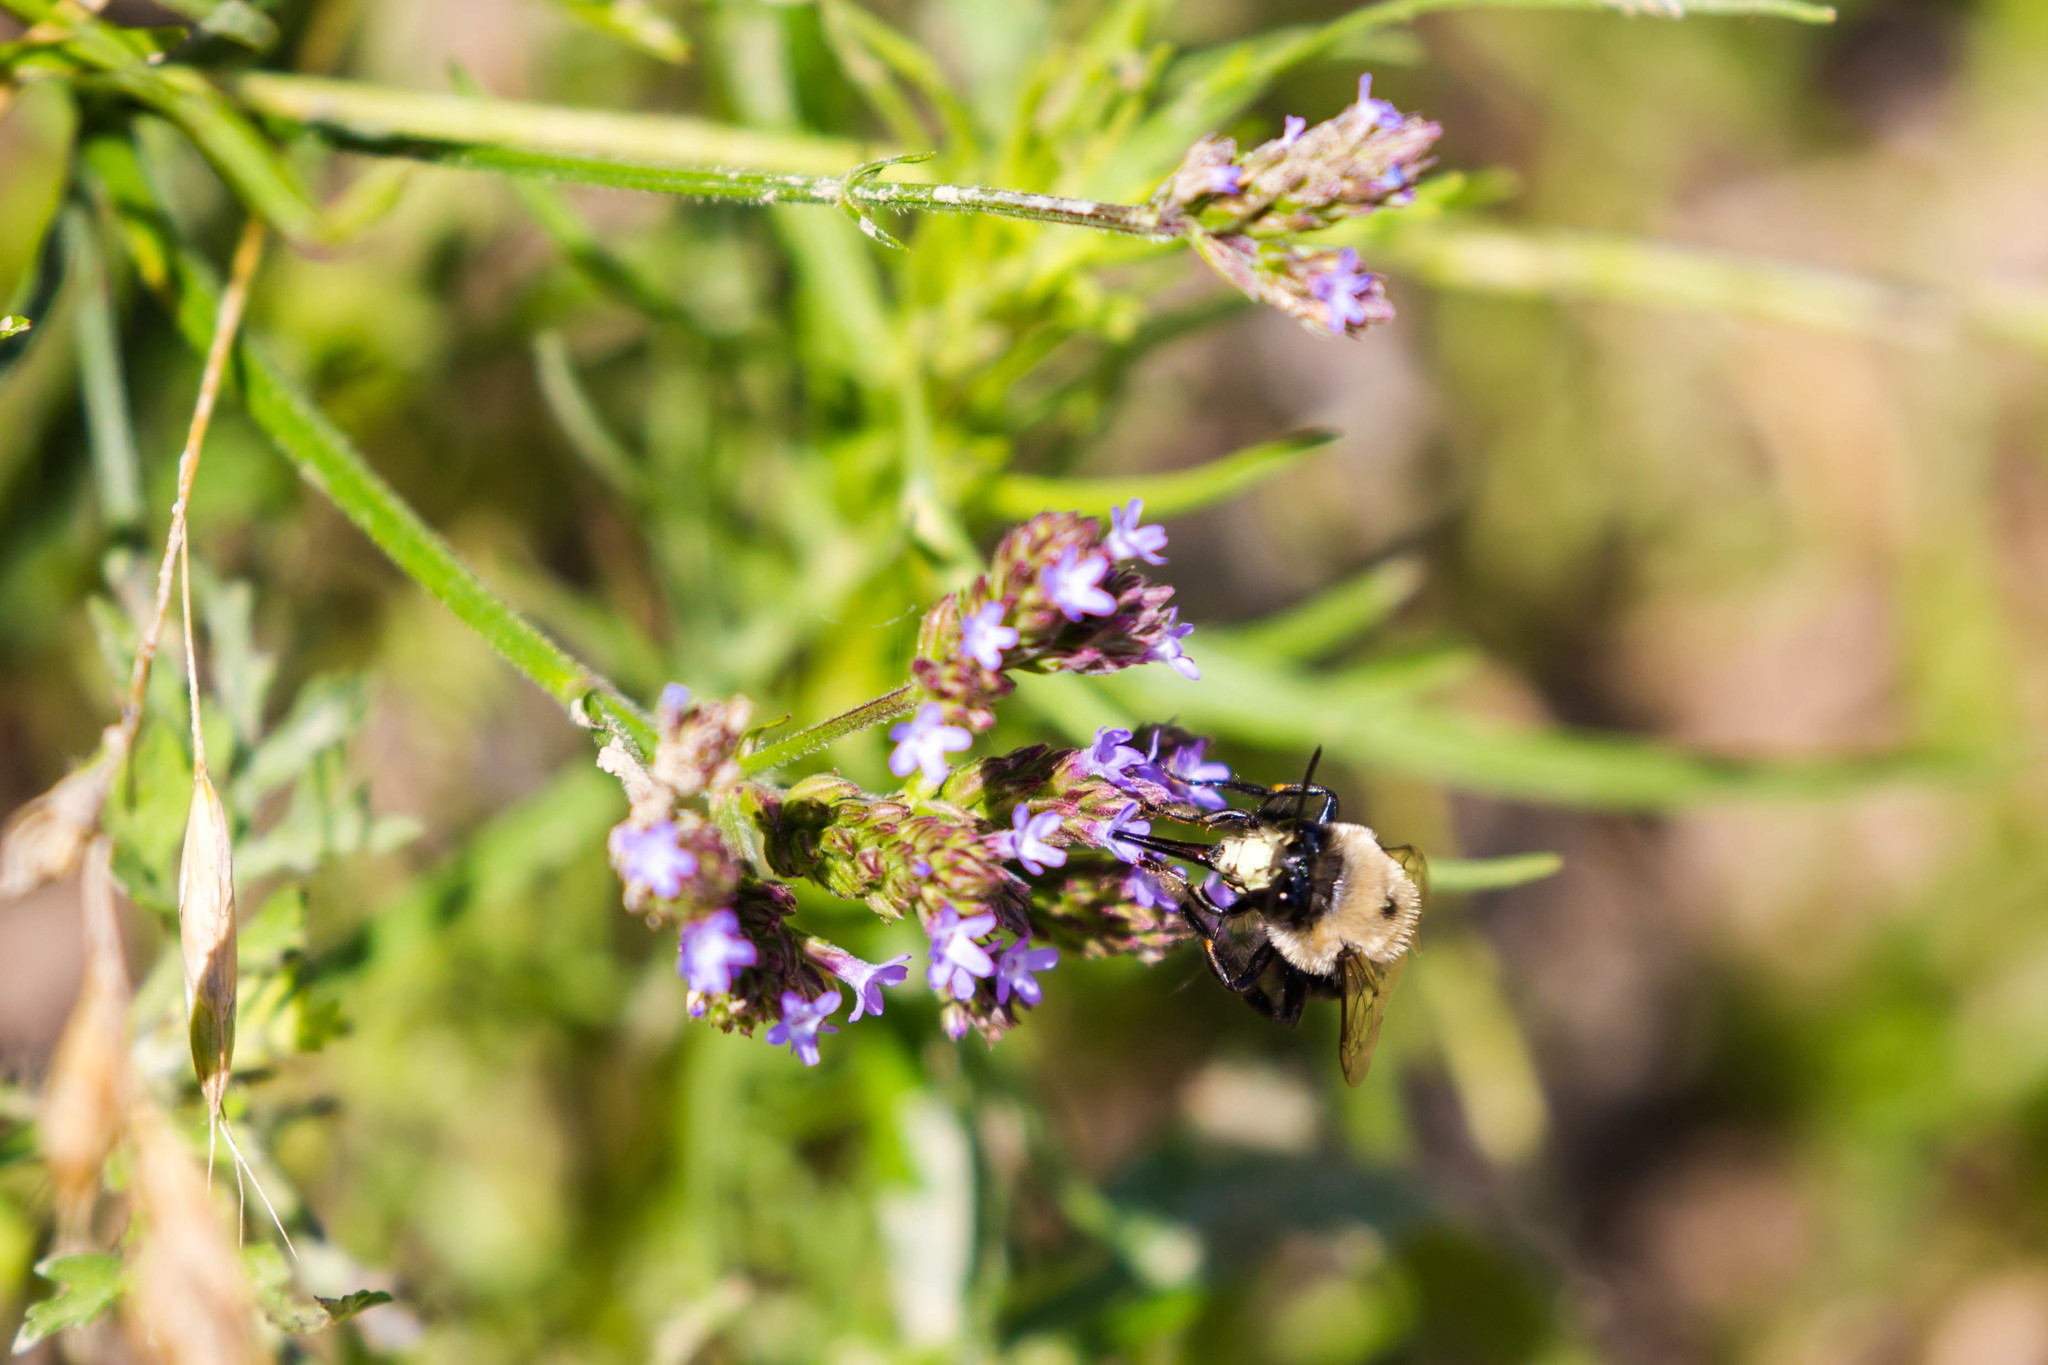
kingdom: Animalia
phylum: Arthropoda
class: Insecta
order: Hymenoptera
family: Apidae
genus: Anthophora
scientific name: Anthophora abrupta
